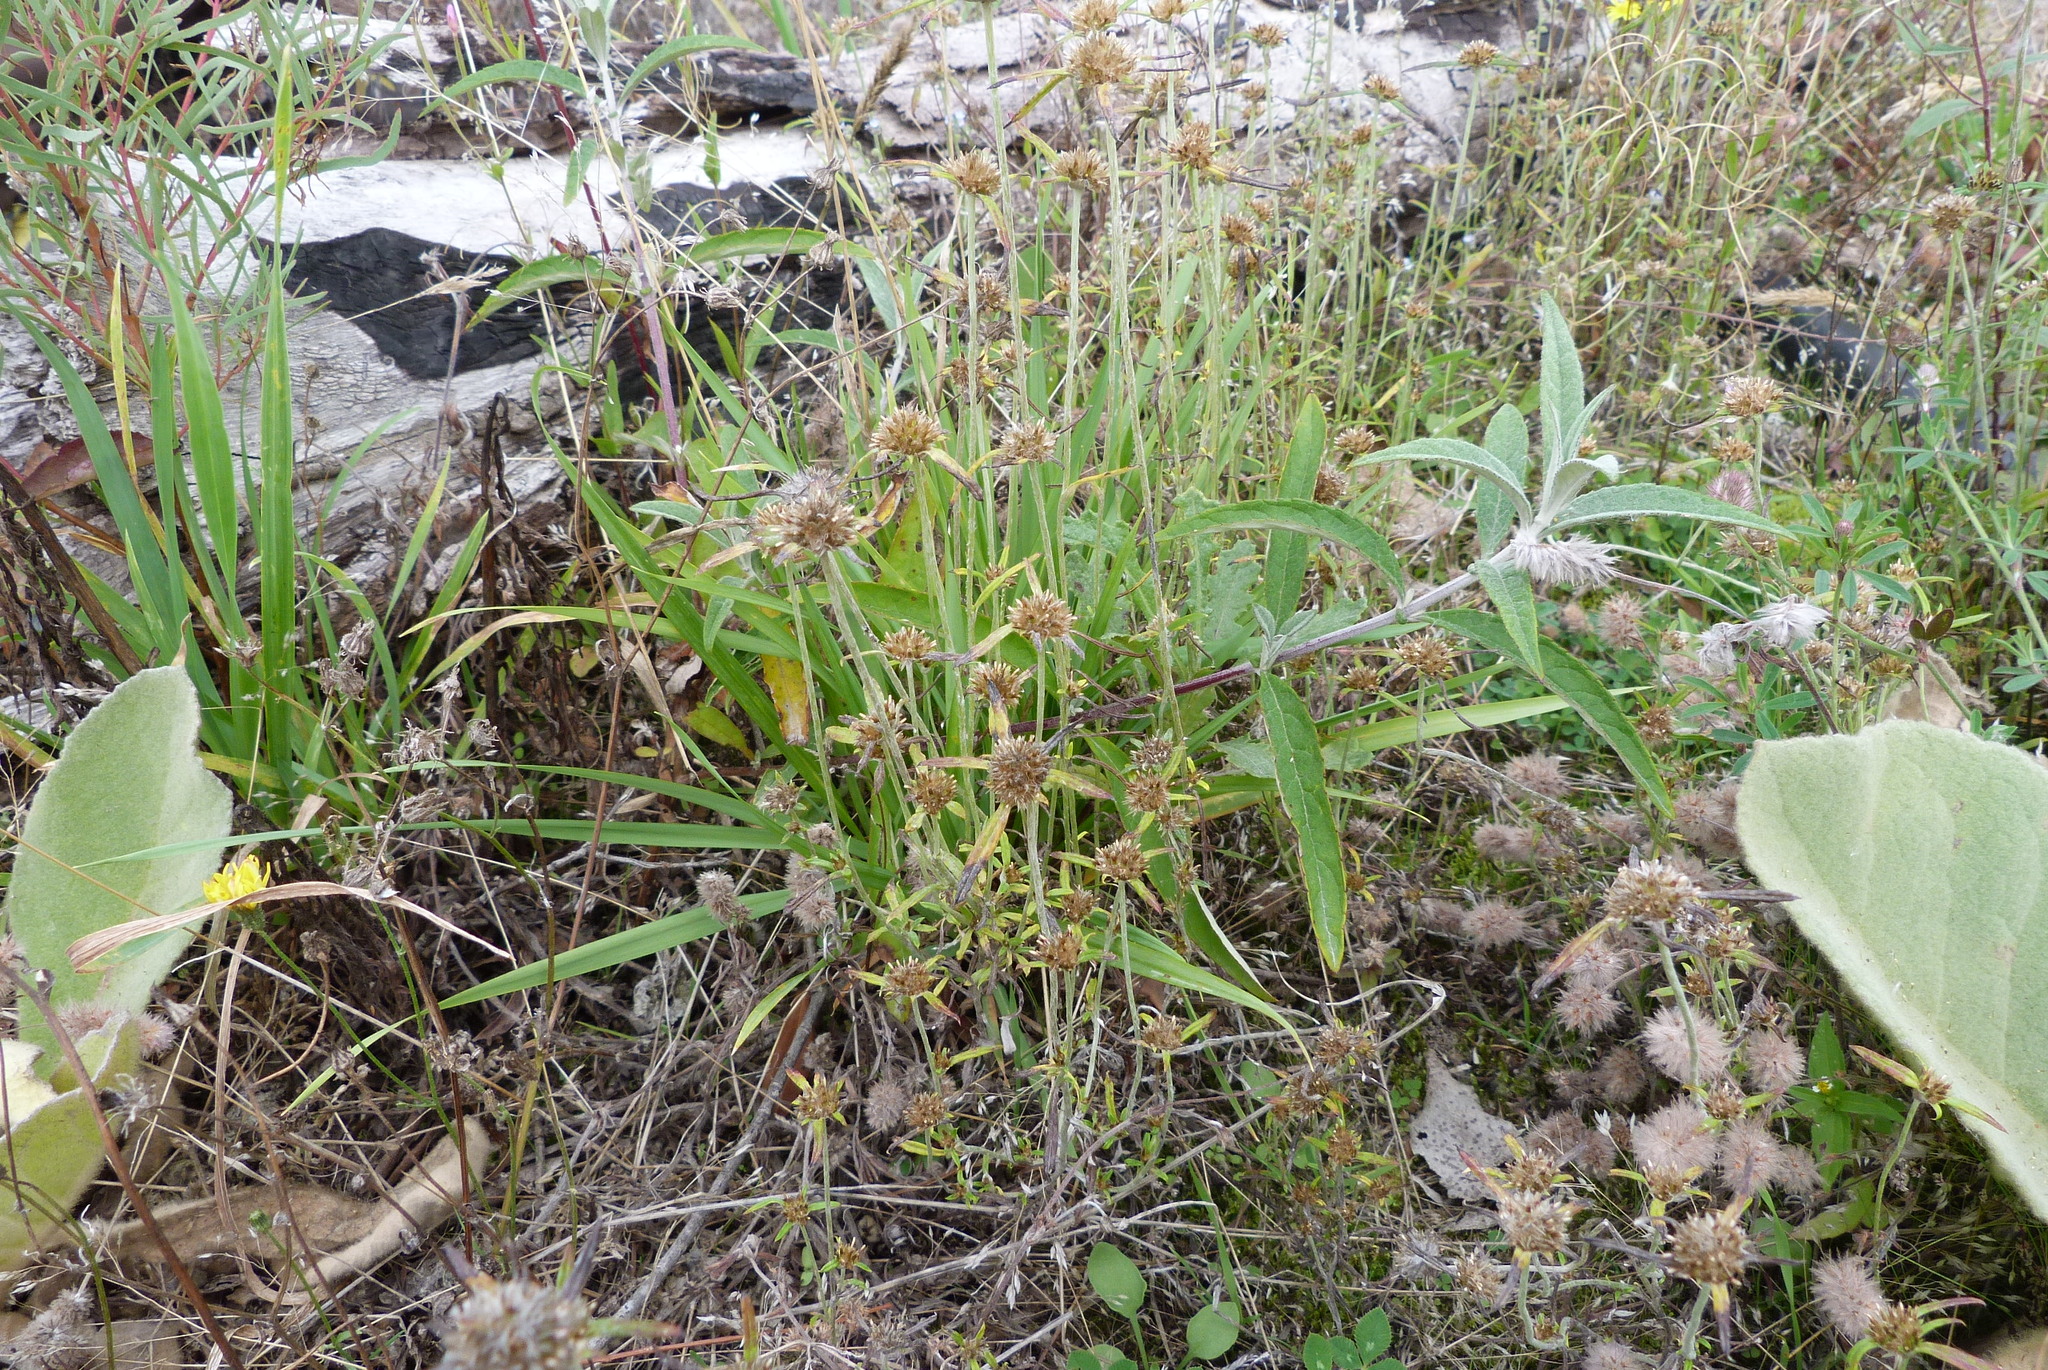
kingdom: Plantae
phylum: Tracheophyta
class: Magnoliopsida
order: Asterales
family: Asteraceae
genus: Euchiton
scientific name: Euchiton involucratus
